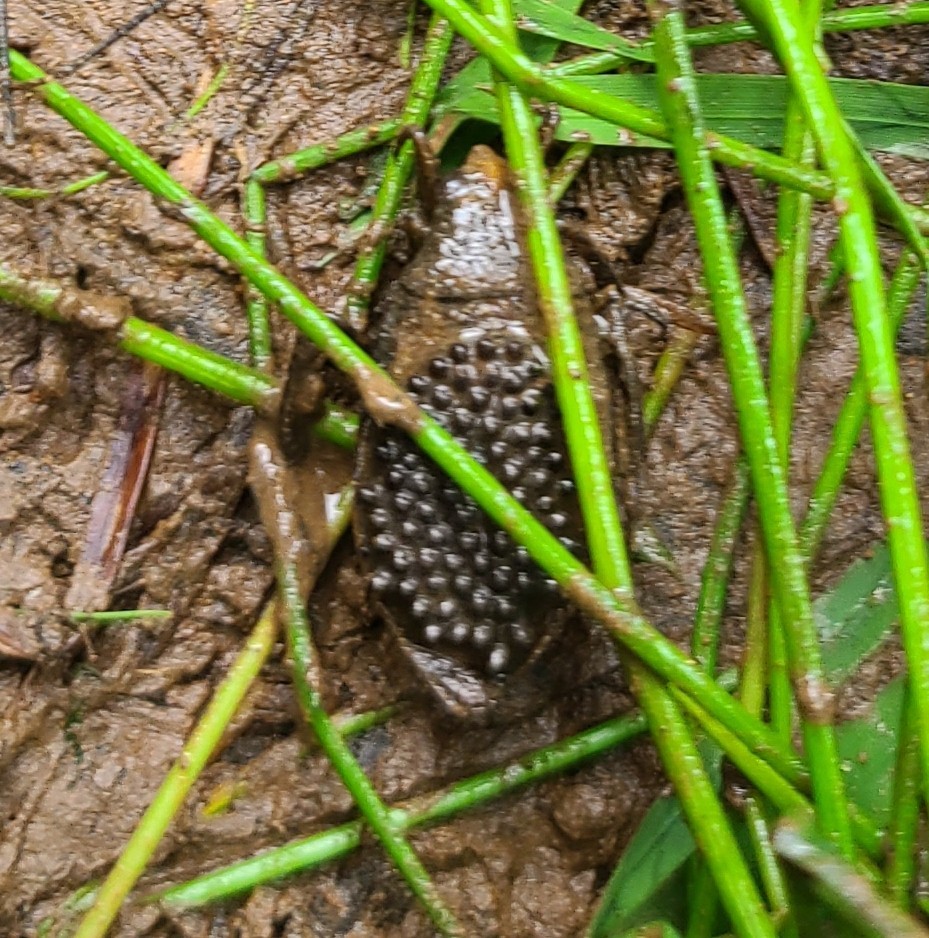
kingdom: Animalia
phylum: Arthropoda
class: Insecta
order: Hemiptera
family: Belostomatidae
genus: Belostoma
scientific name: Belostoma
